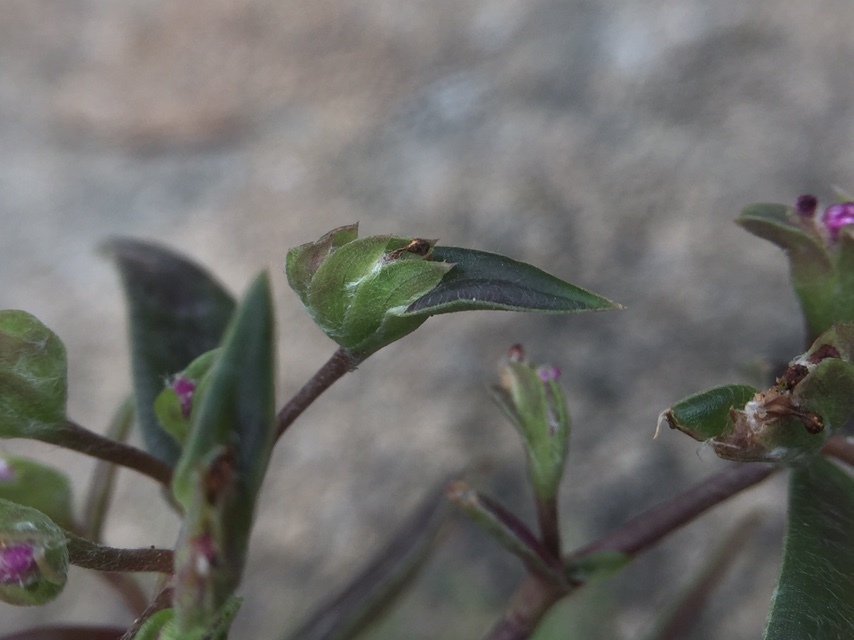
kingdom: Plantae
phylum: Tracheophyta
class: Liliopsida
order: Commelinales
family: Commelinaceae
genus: Cyanotis
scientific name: Cyanotis fasciculata
